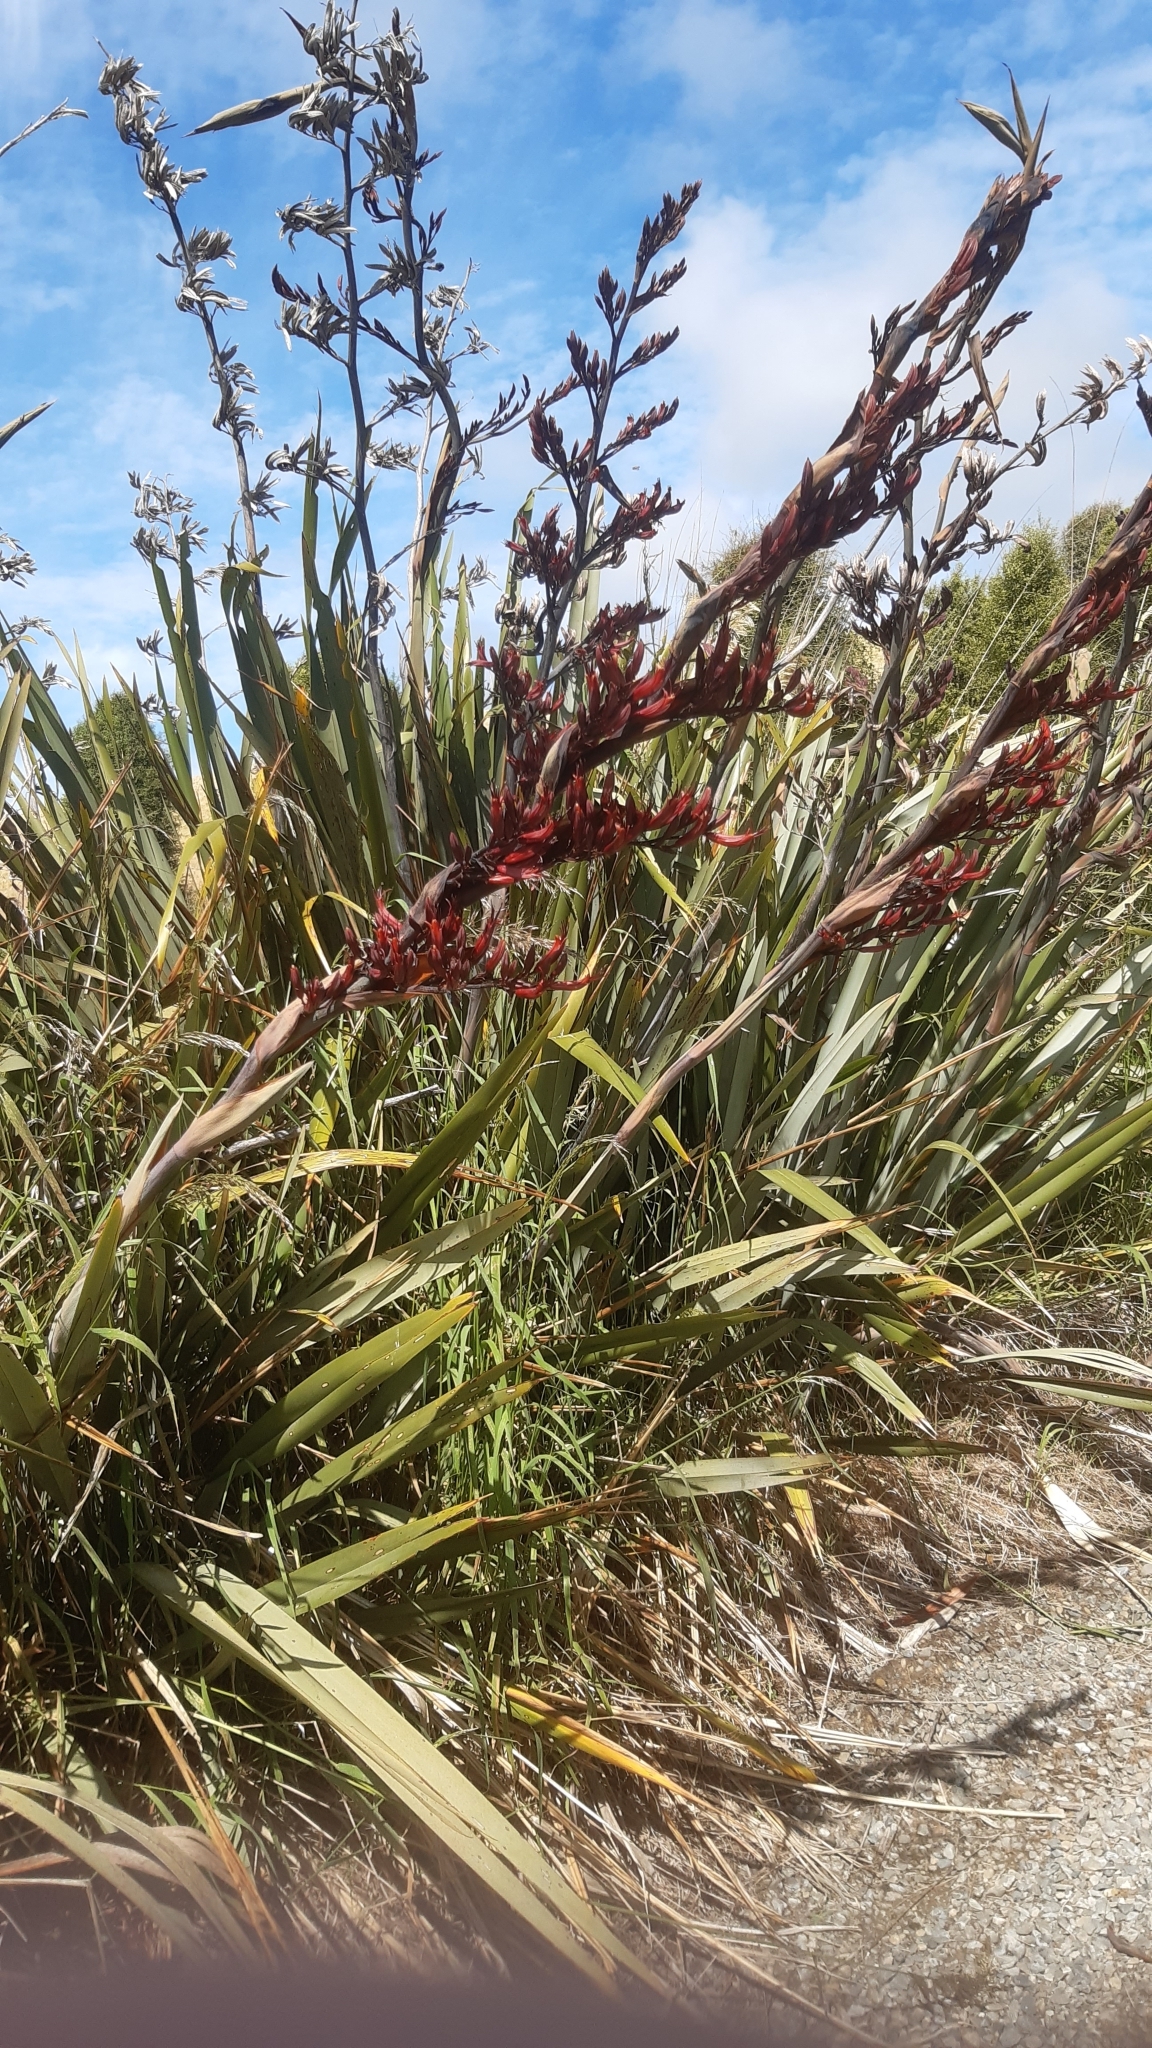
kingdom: Plantae
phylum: Tracheophyta
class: Liliopsida
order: Asparagales
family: Asphodelaceae
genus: Phormium
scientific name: Phormium tenax
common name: New zealand flax
